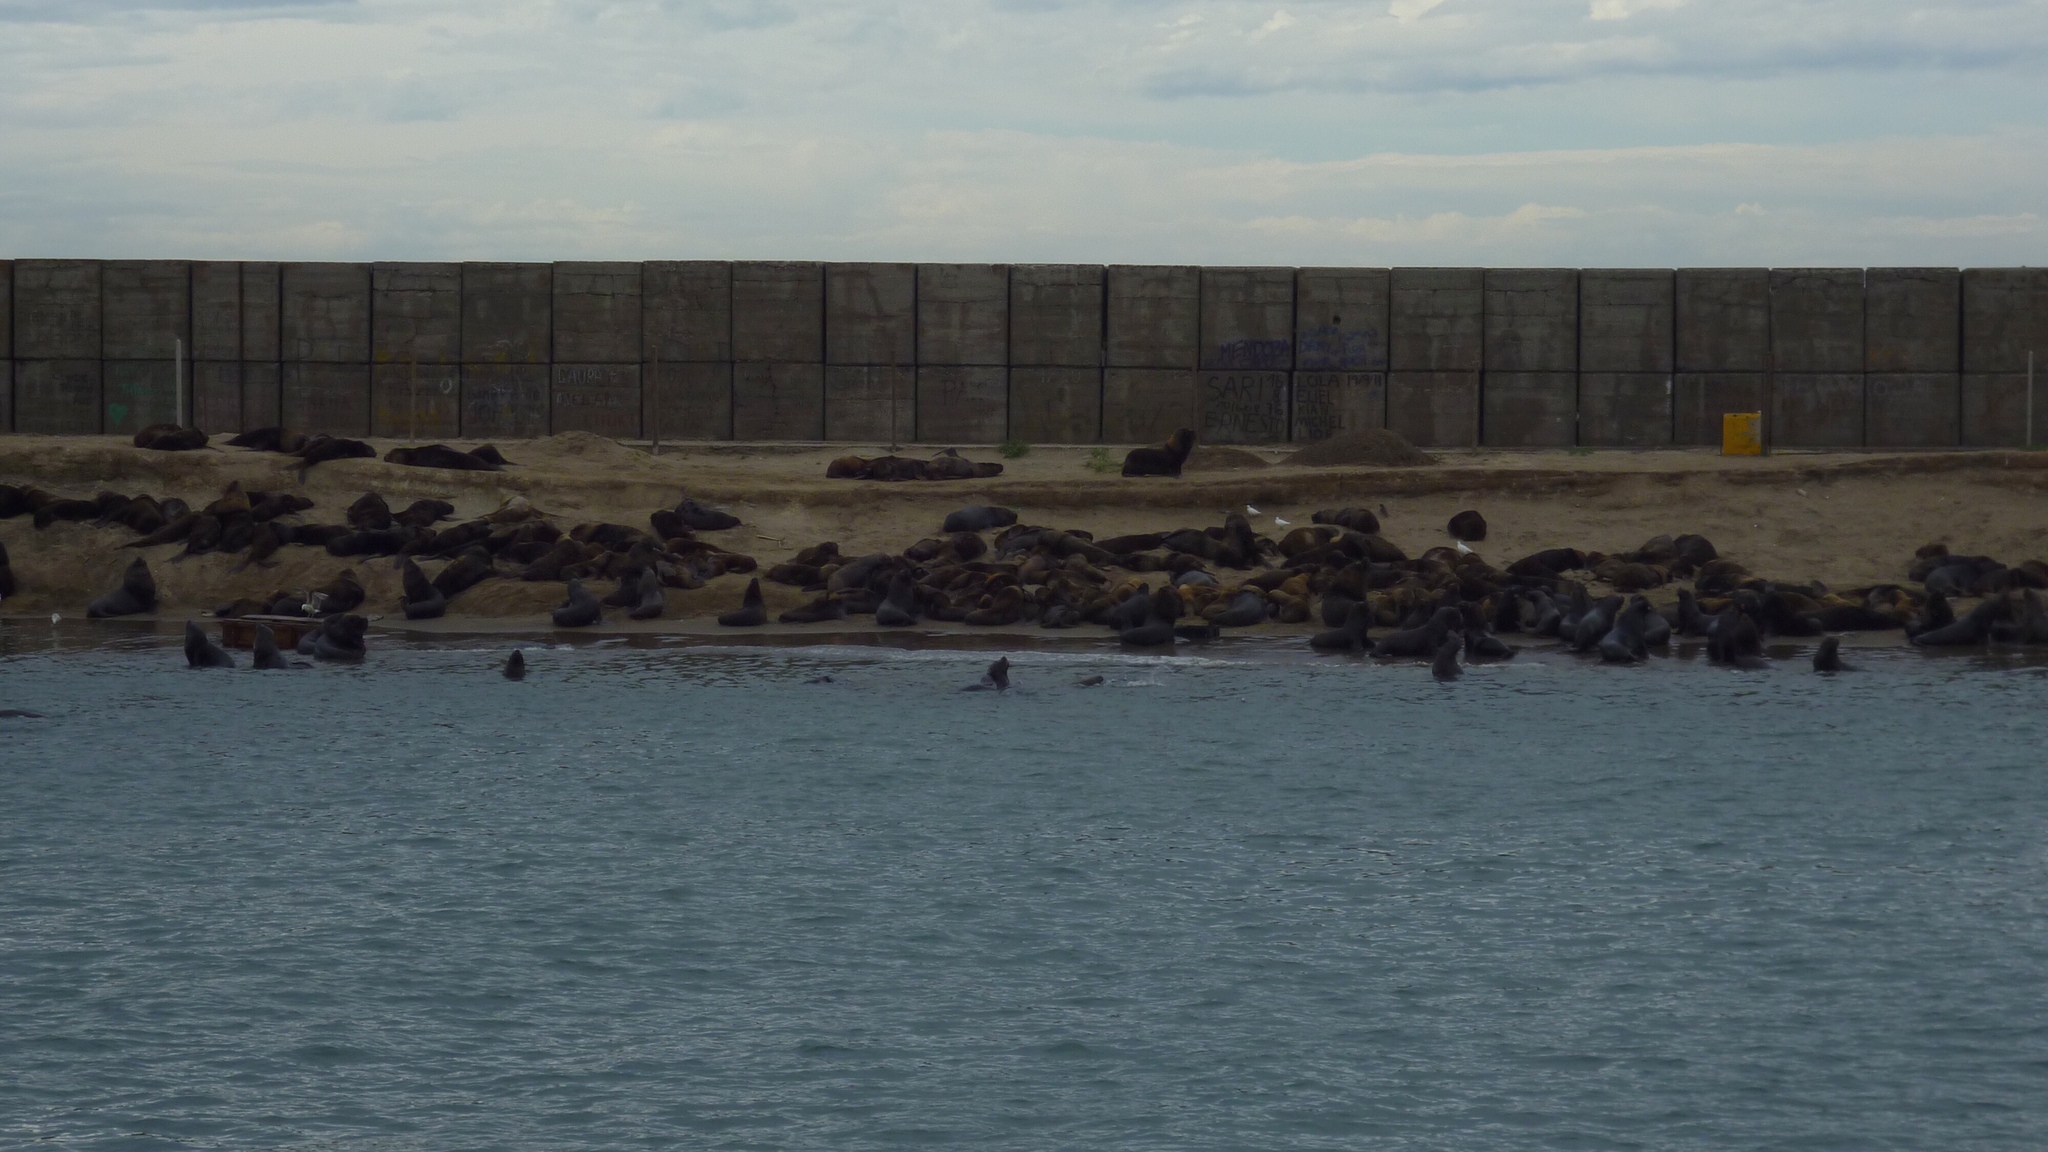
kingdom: Animalia
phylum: Chordata
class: Mammalia
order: Carnivora
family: Otariidae
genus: Otaria
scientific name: Otaria byronia
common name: South american sea lion
